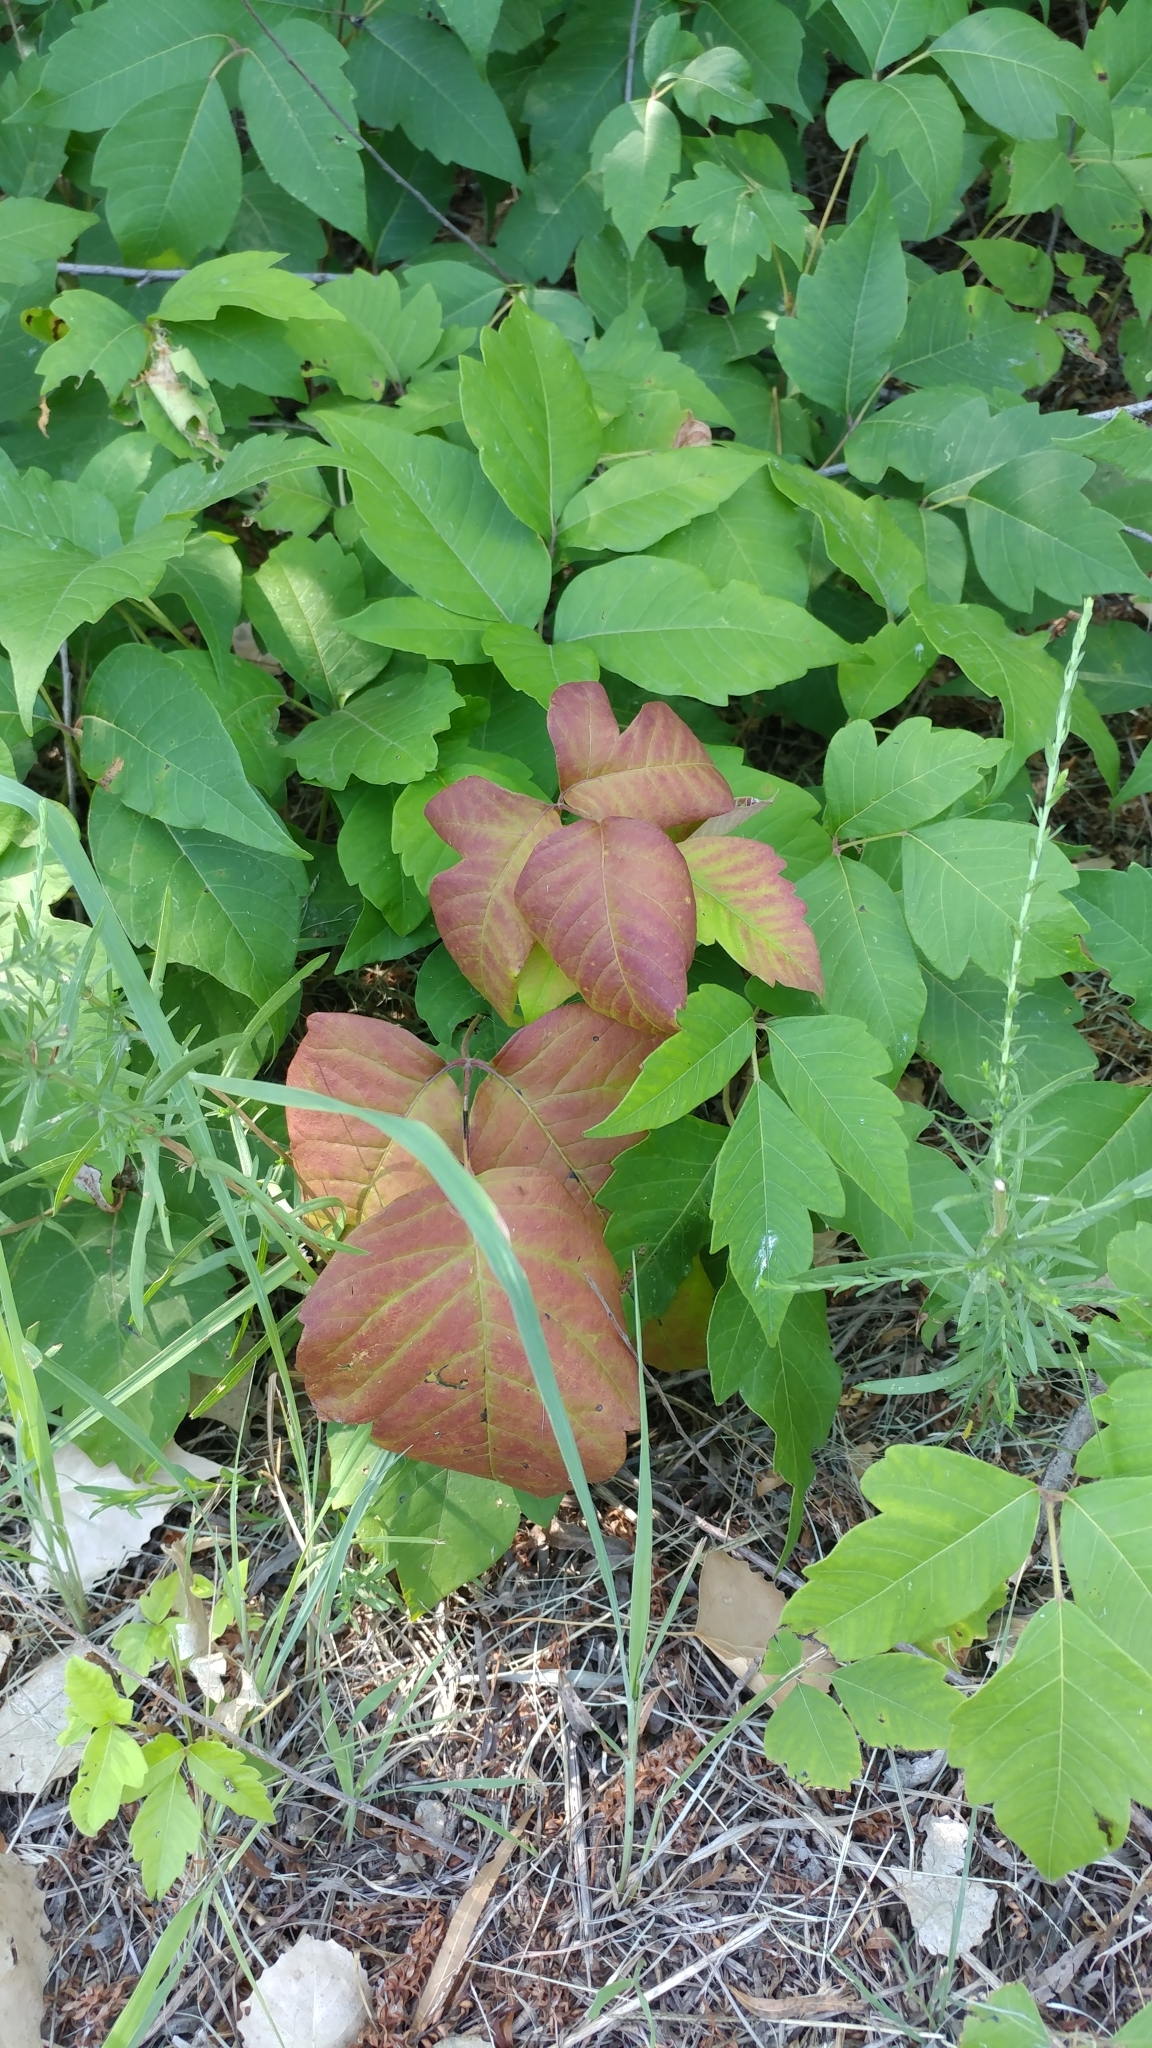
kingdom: Plantae
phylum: Tracheophyta
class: Magnoliopsida
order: Sapindales
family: Anacardiaceae
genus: Toxicodendron
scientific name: Toxicodendron radicans
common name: Poison ivy
